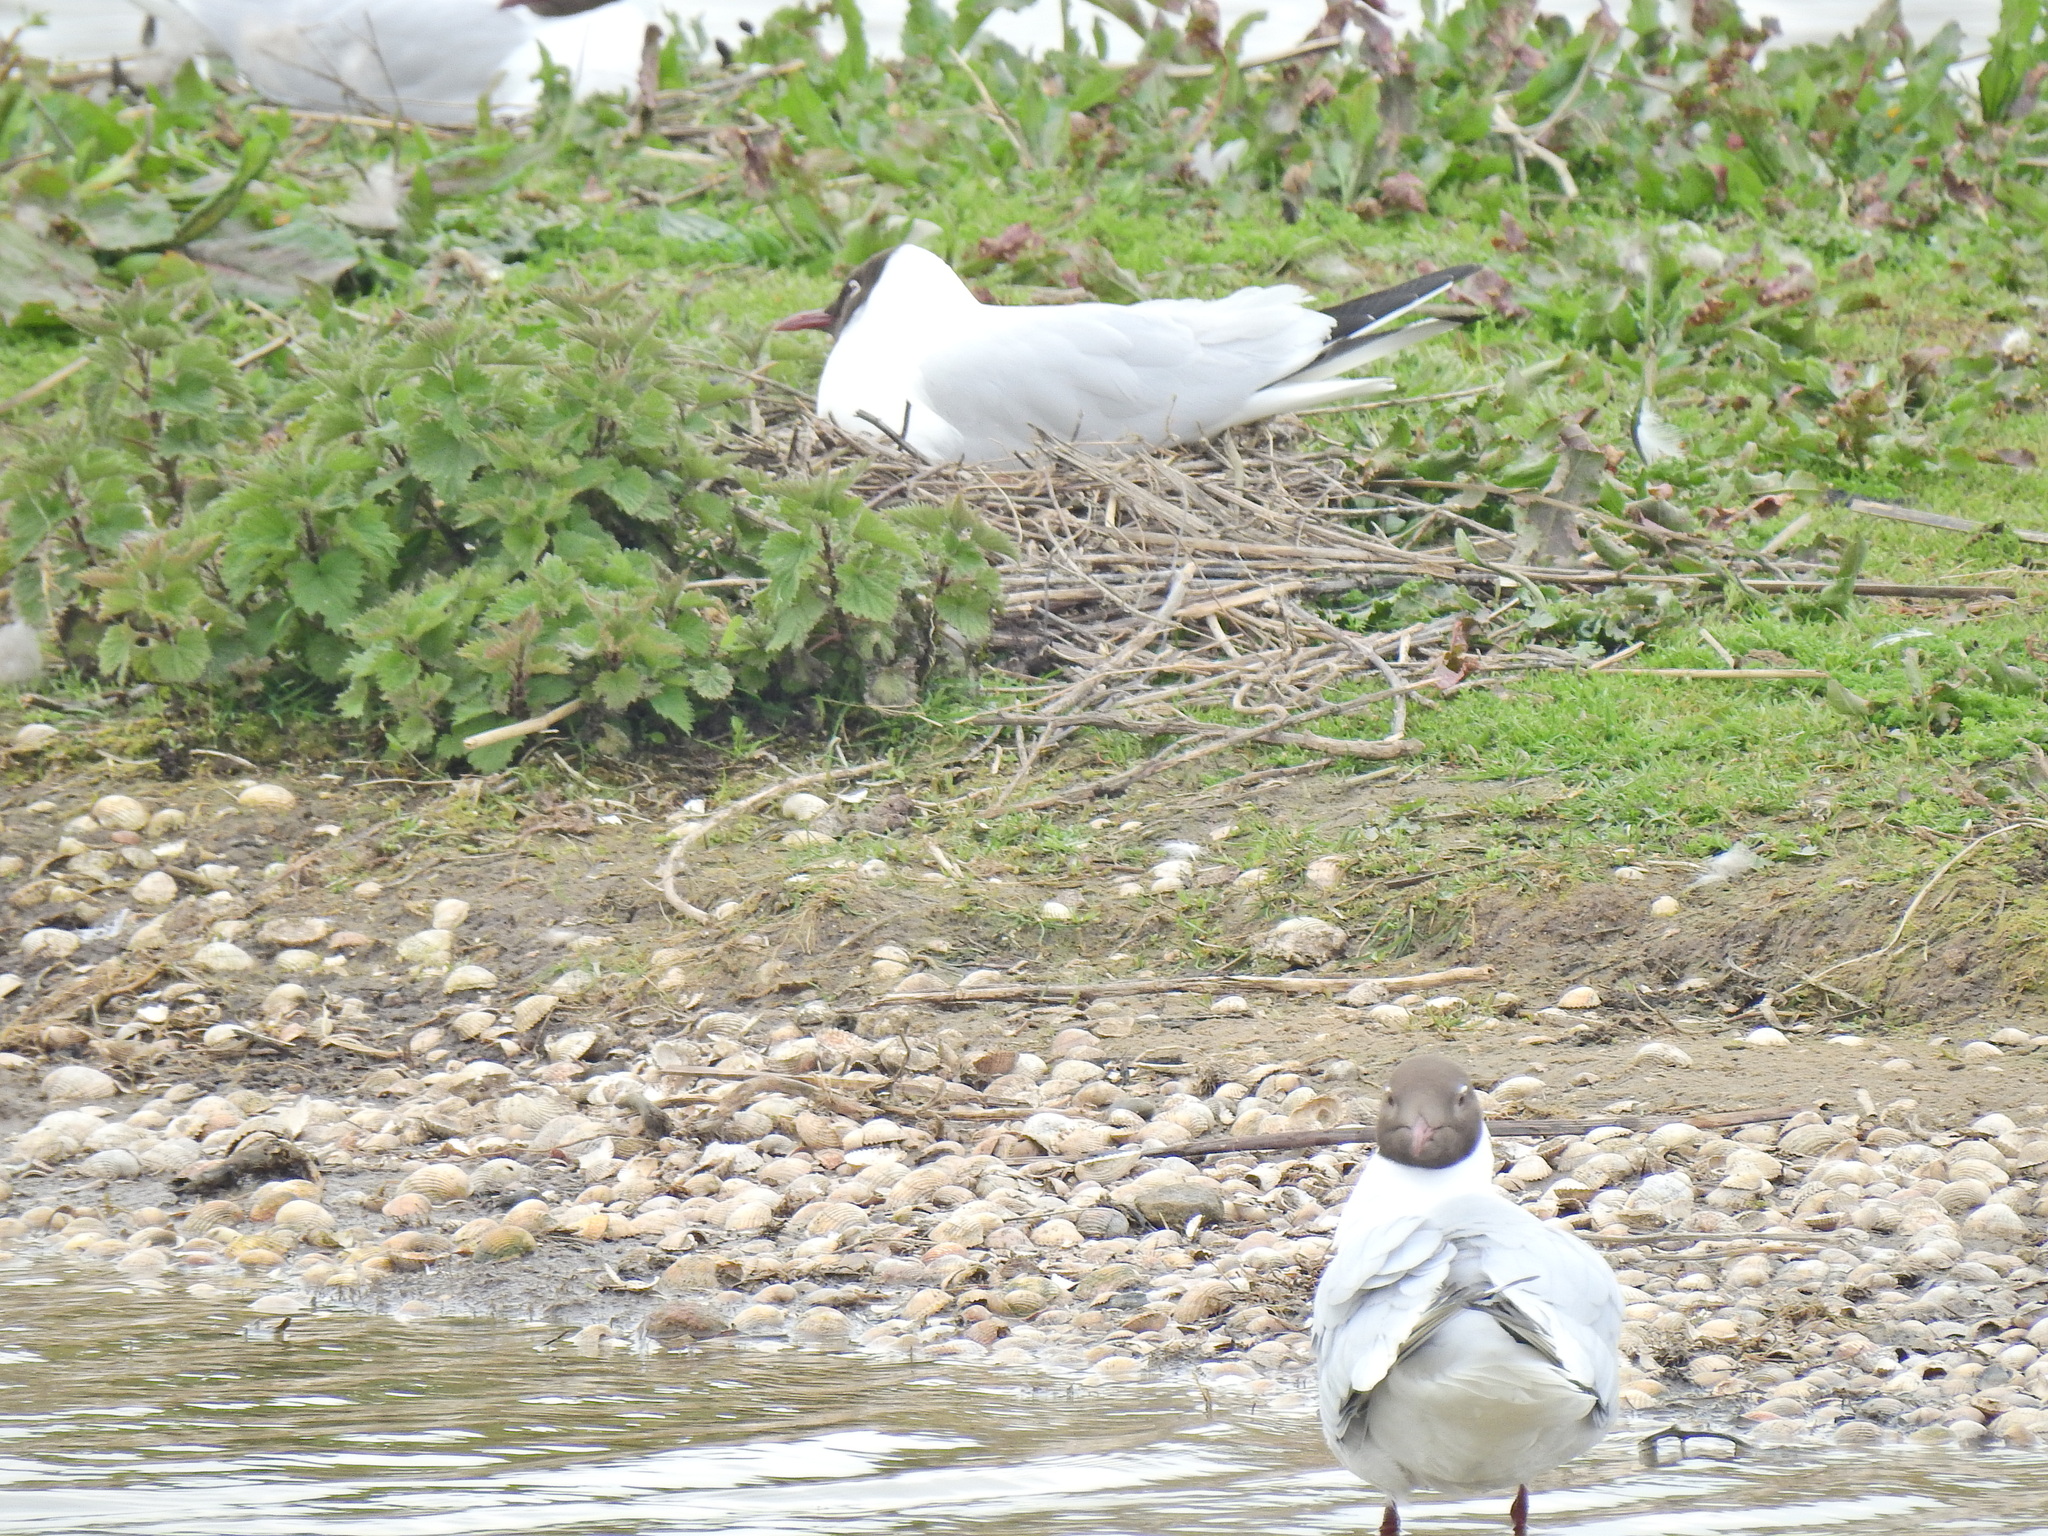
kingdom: Animalia
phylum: Chordata
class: Aves
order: Charadriiformes
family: Laridae
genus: Chroicocephalus
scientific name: Chroicocephalus ridibundus
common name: Black-headed gull
